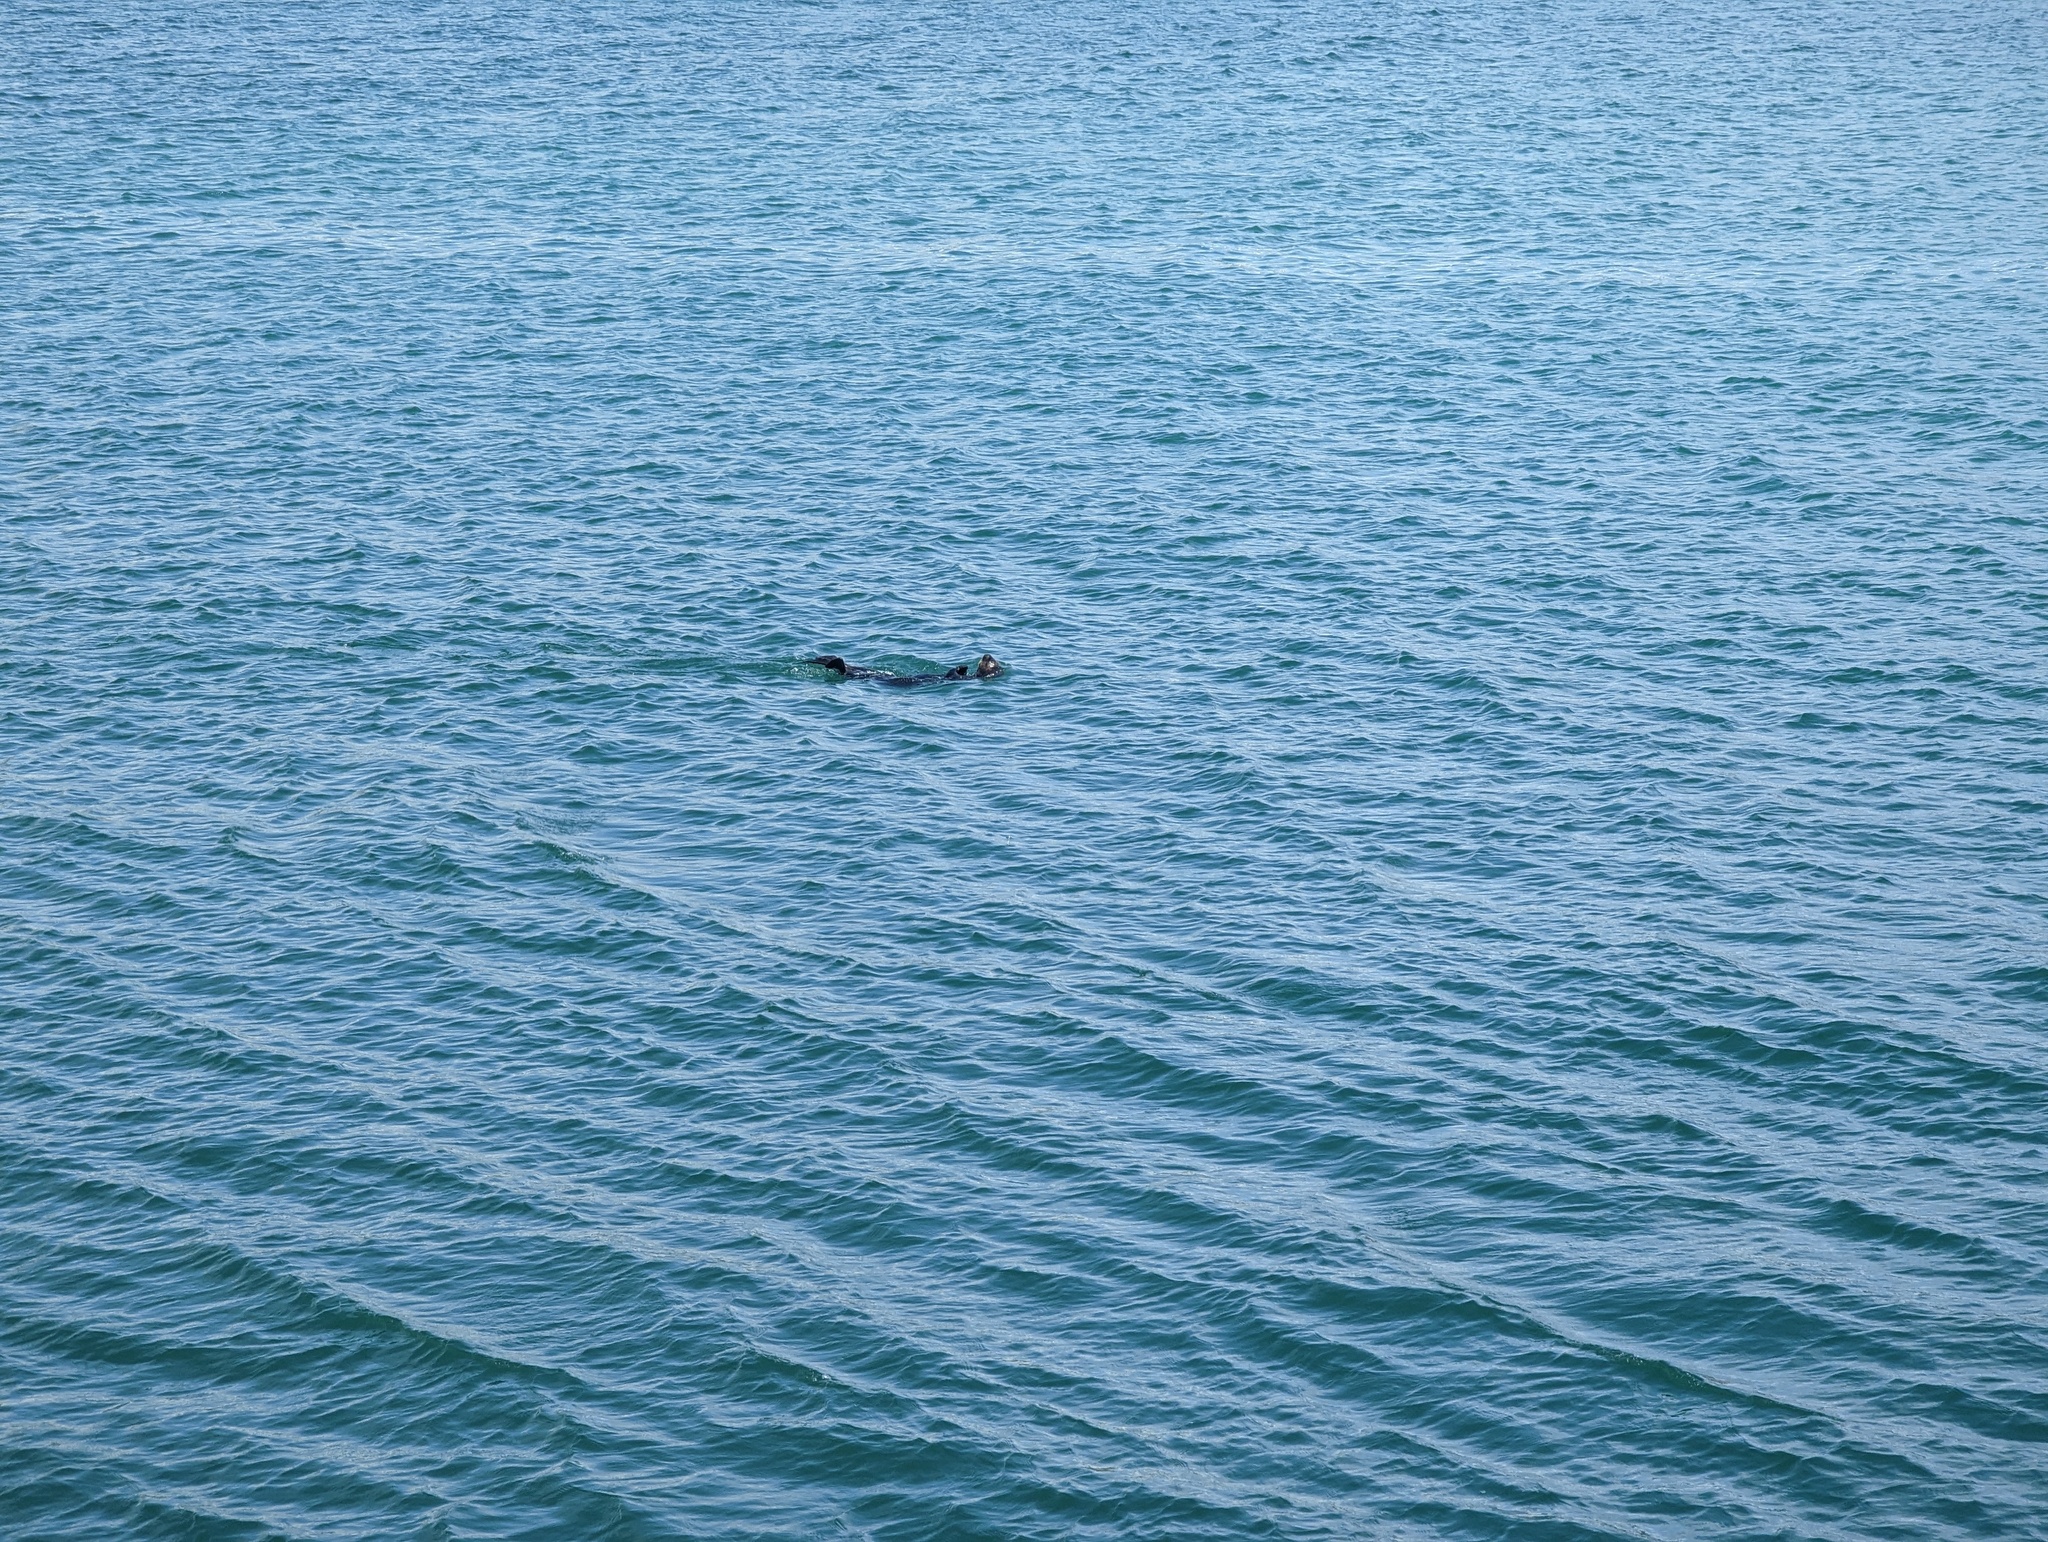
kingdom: Animalia
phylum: Chordata
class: Mammalia
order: Carnivora
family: Mustelidae
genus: Enhydra
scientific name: Enhydra lutris
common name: Sea otter
